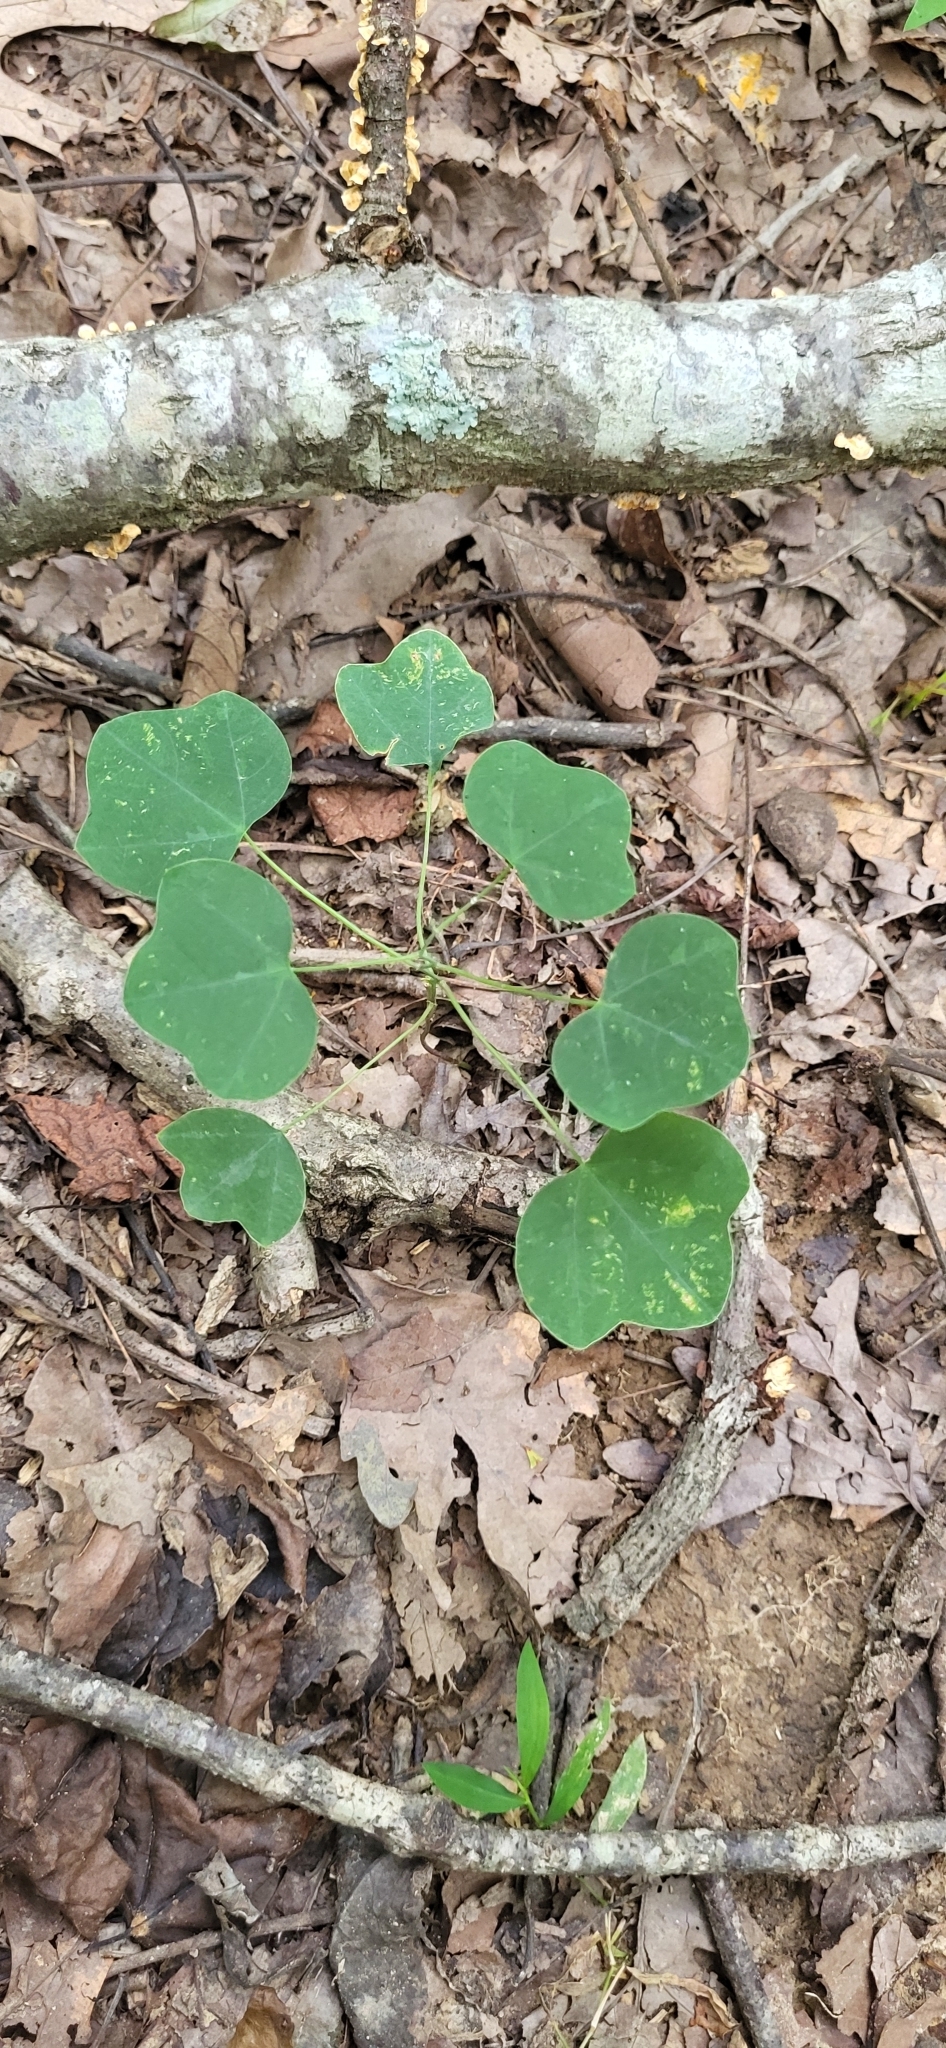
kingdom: Plantae
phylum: Tracheophyta
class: Magnoliopsida
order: Malpighiales
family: Passifloraceae
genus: Passiflora
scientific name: Passiflora lutea
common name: Yellow passionflower
